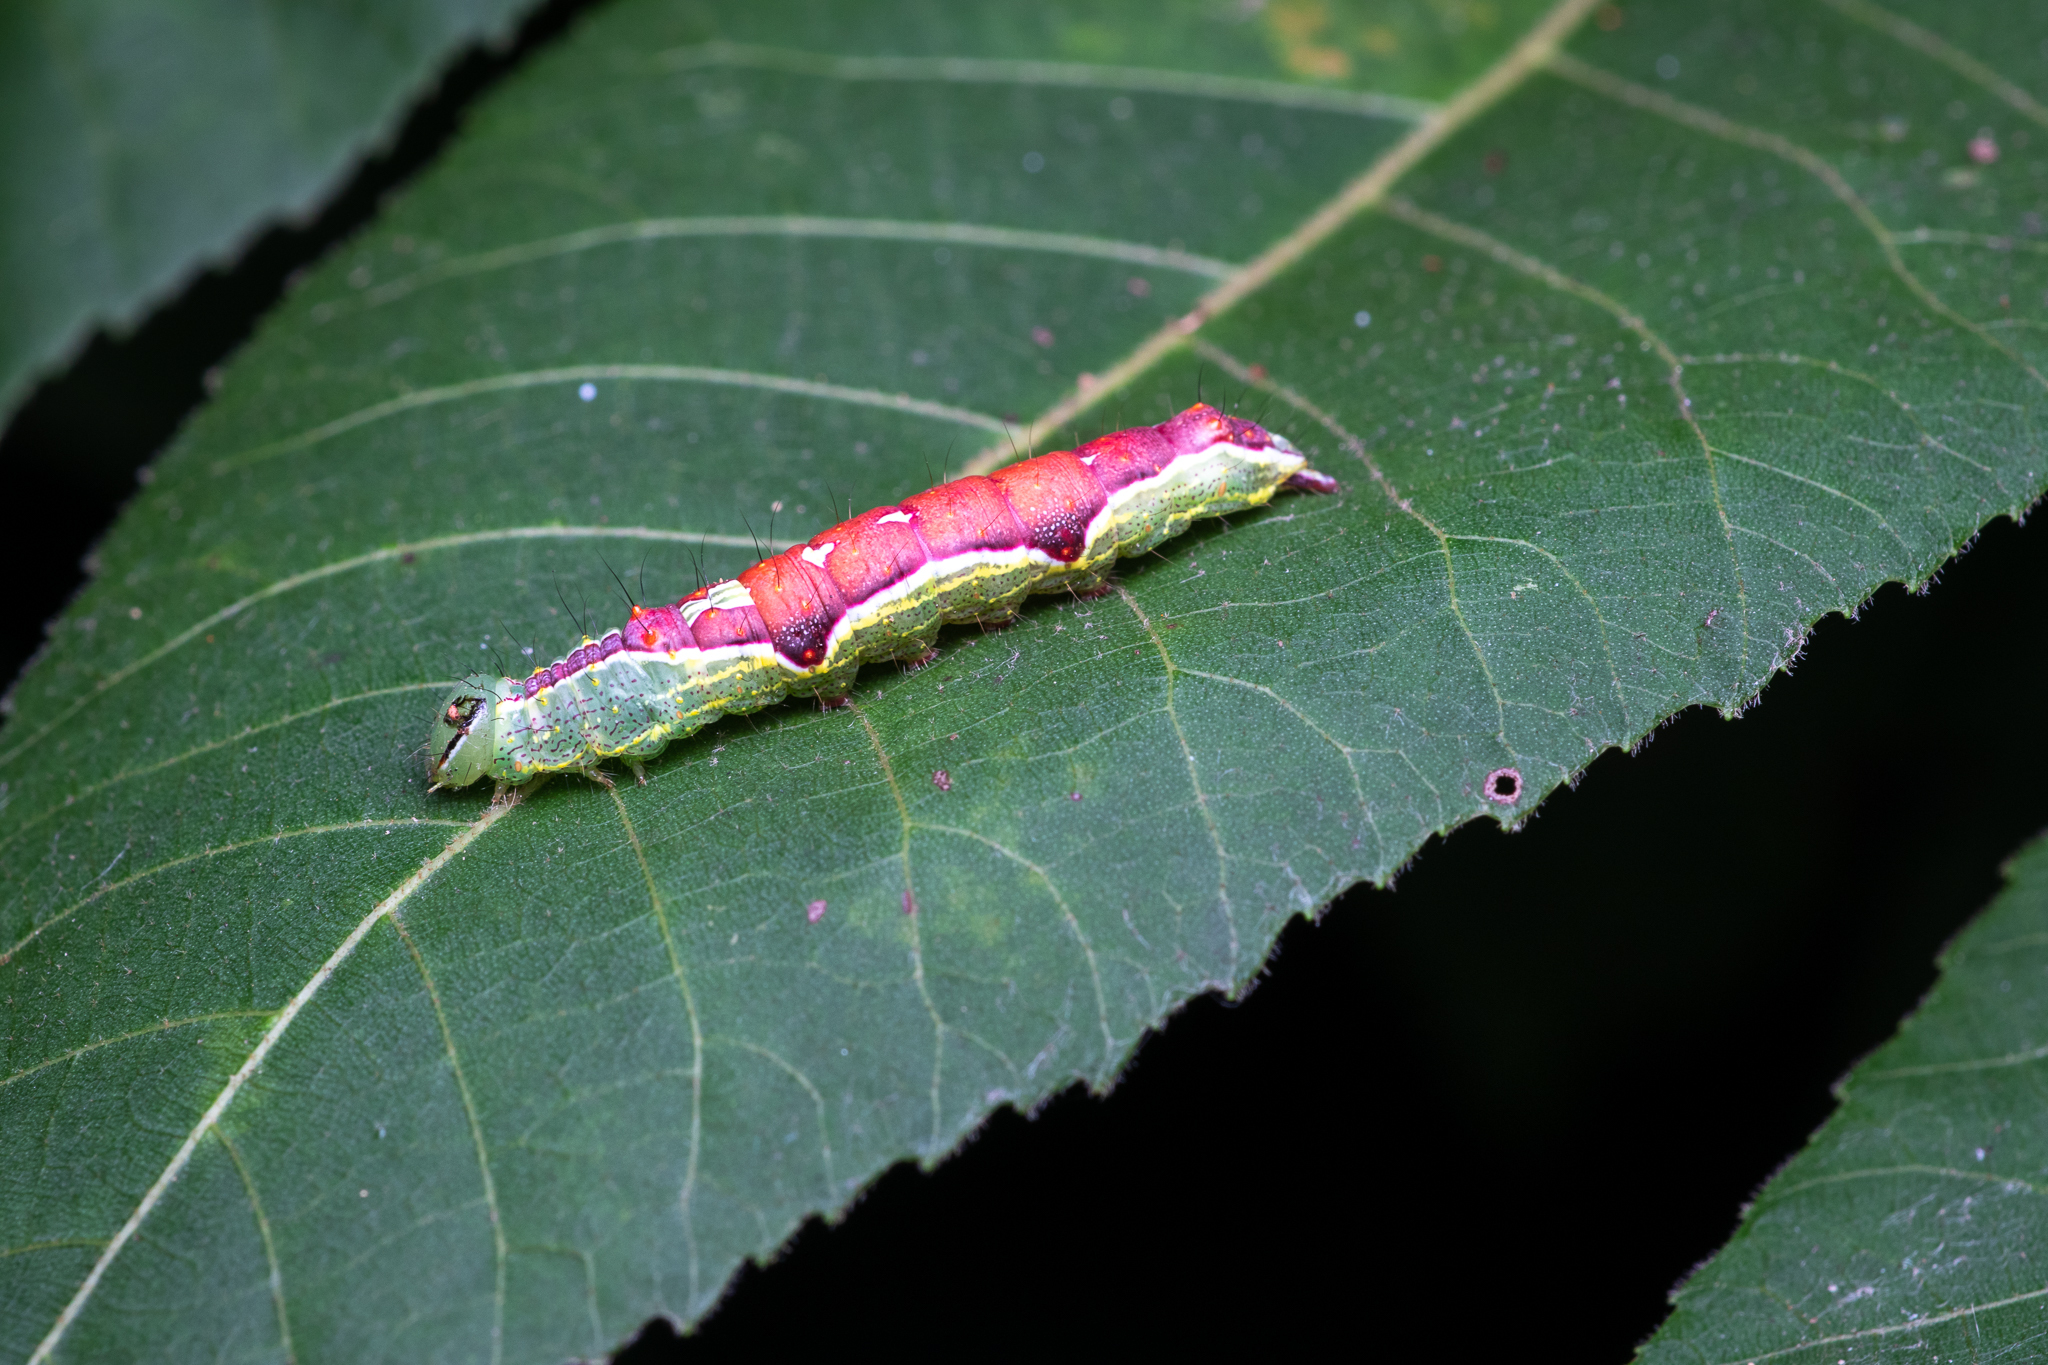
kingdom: Animalia
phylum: Arthropoda
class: Insecta
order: Lepidoptera
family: Notodontidae
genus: Lochmaeus
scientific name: Lochmaeus bilineata
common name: Double-lined prominent
